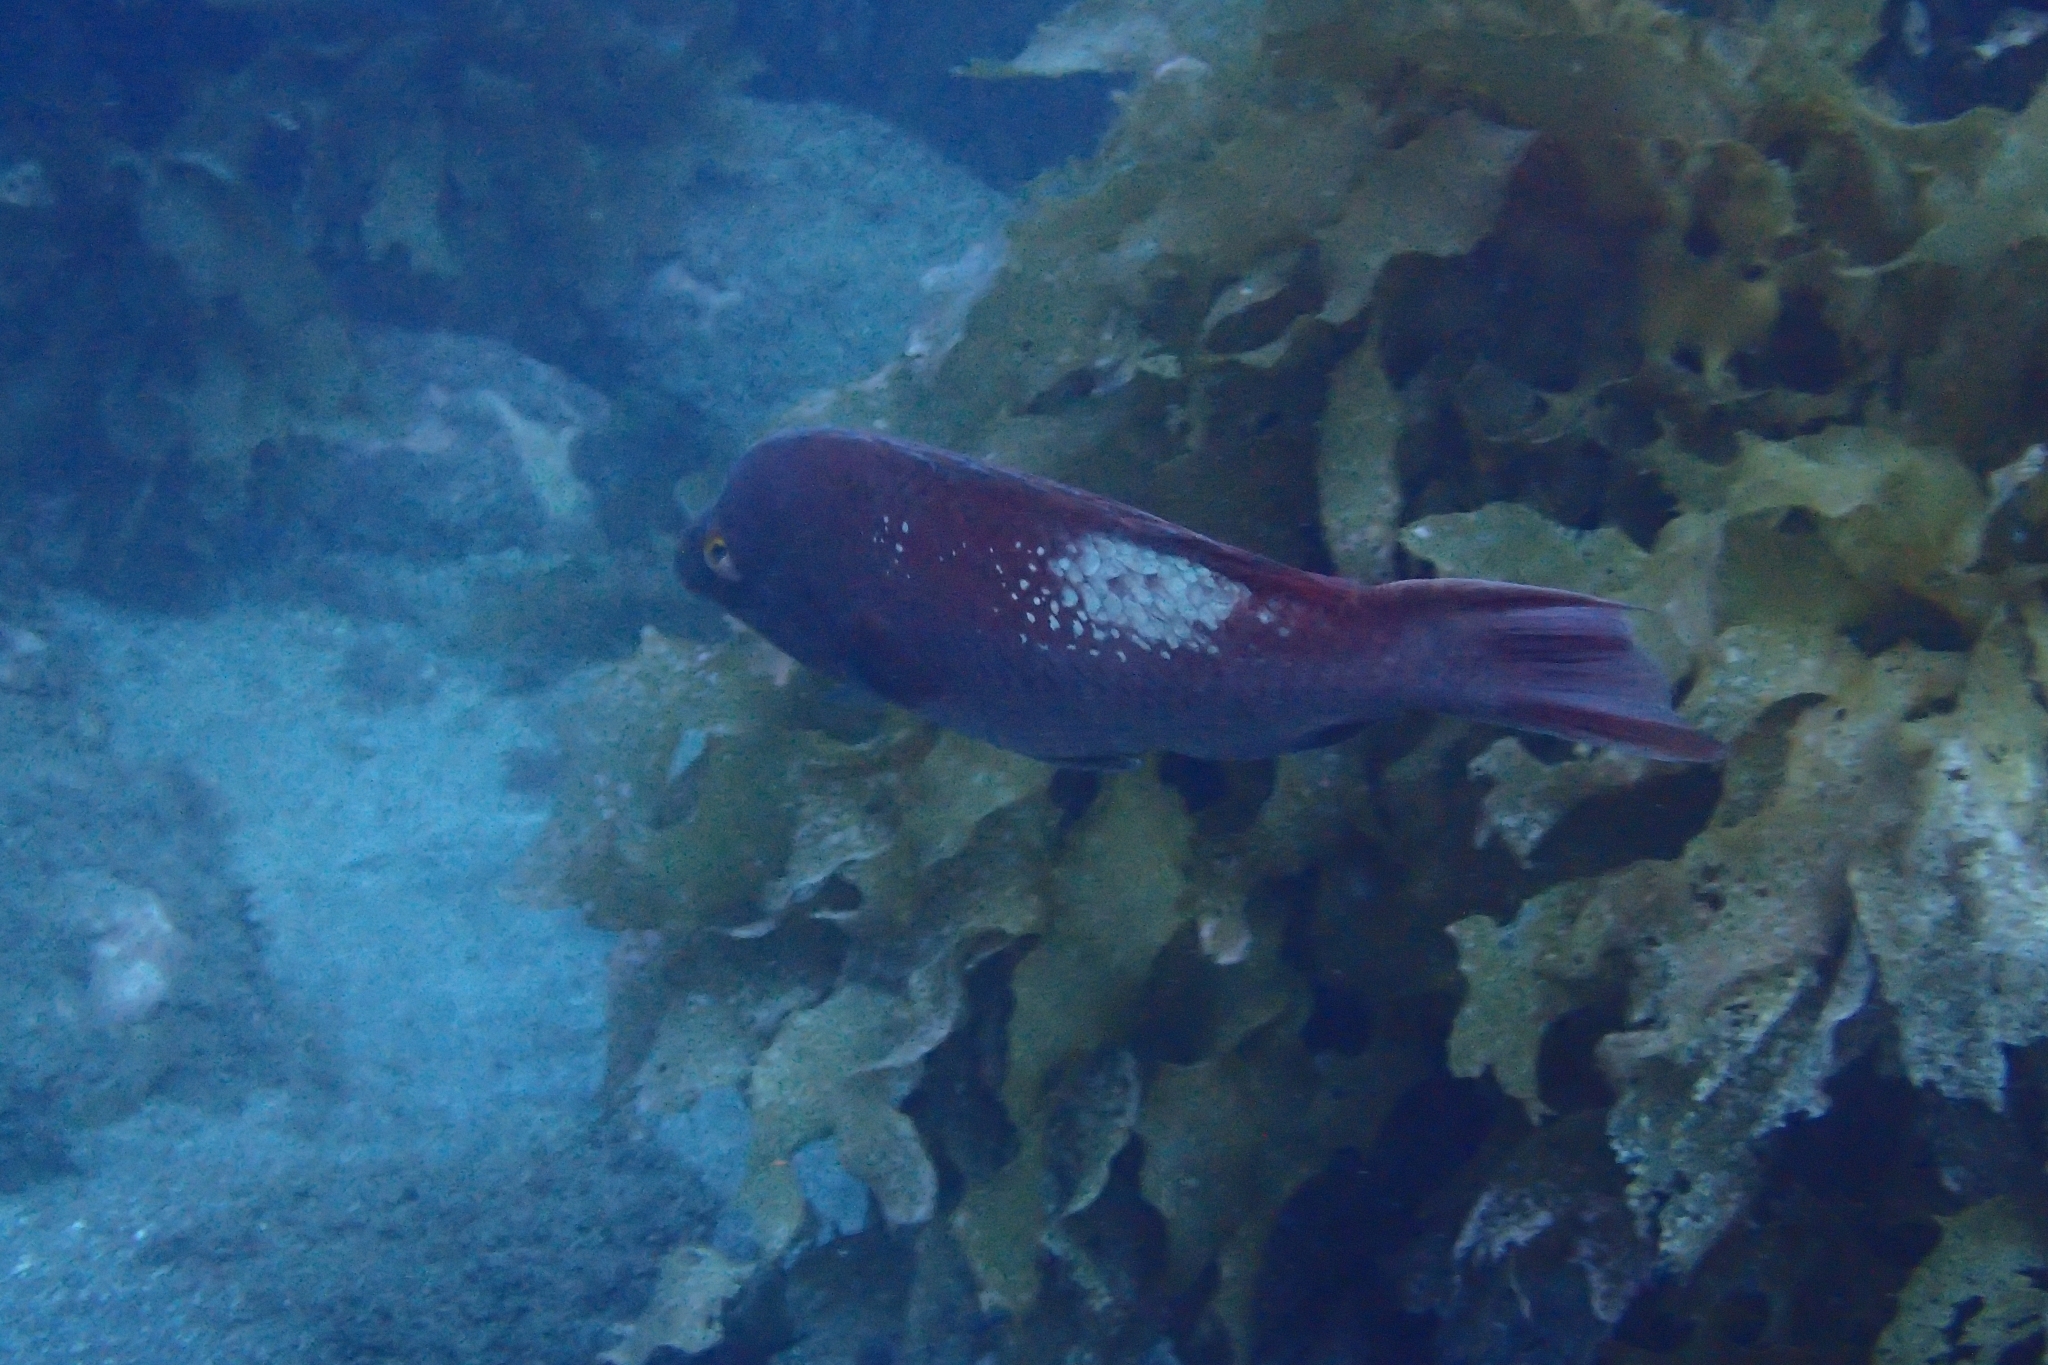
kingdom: Animalia
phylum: Chordata
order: Perciformes
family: Labridae
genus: Bodianus
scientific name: Bodianus unimaculatus
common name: Pigfish
